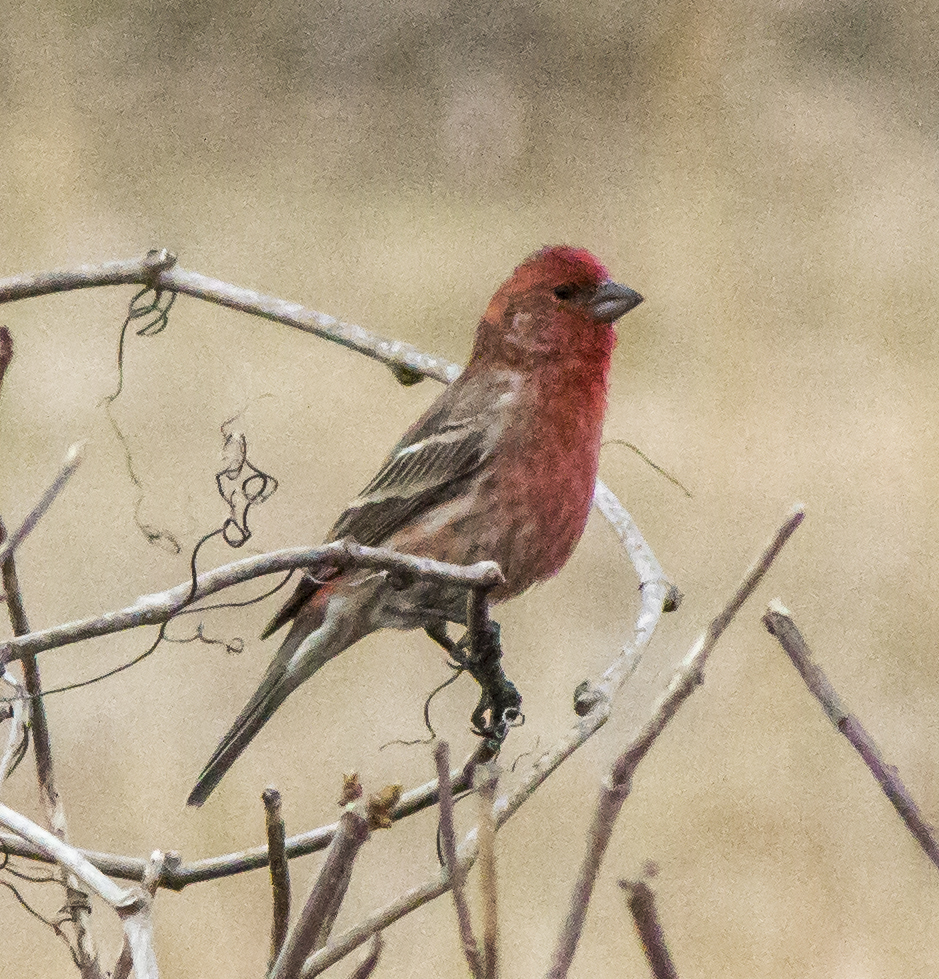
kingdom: Animalia
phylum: Chordata
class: Aves
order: Passeriformes
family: Fringillidae
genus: Haemorhous
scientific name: Haemorhous mexicanus
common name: House finch
